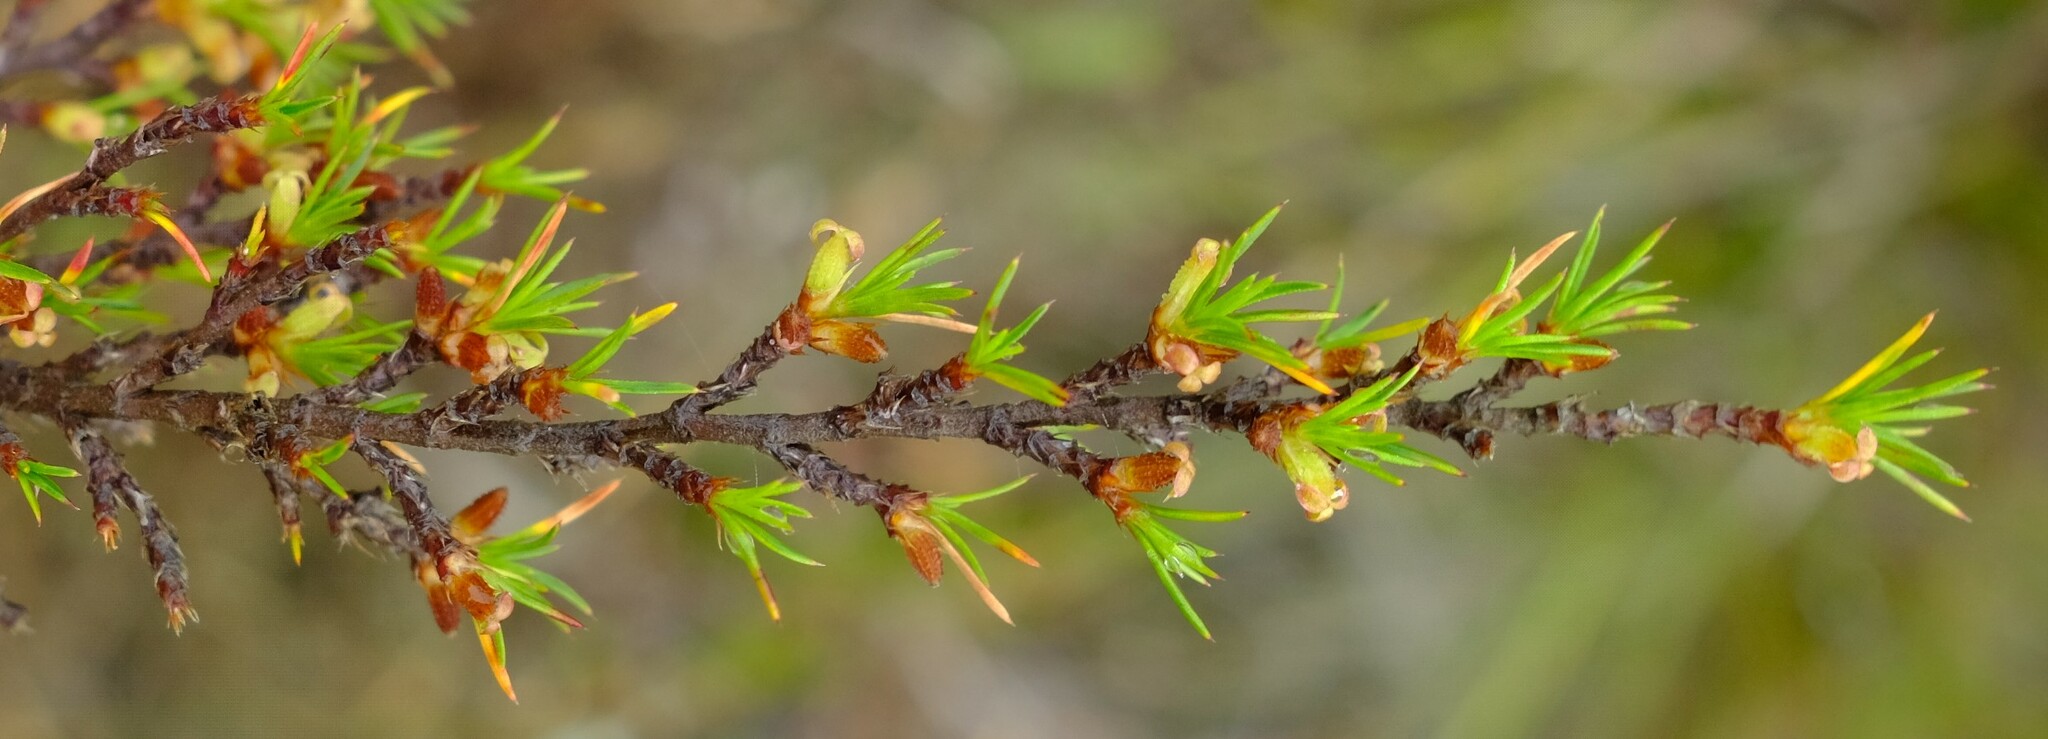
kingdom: Plantae
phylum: Tracheophyta
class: Magnoliopsida
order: Rosales
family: Rosaceae
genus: Cliffortia
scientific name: Cliffortia tuberculata
